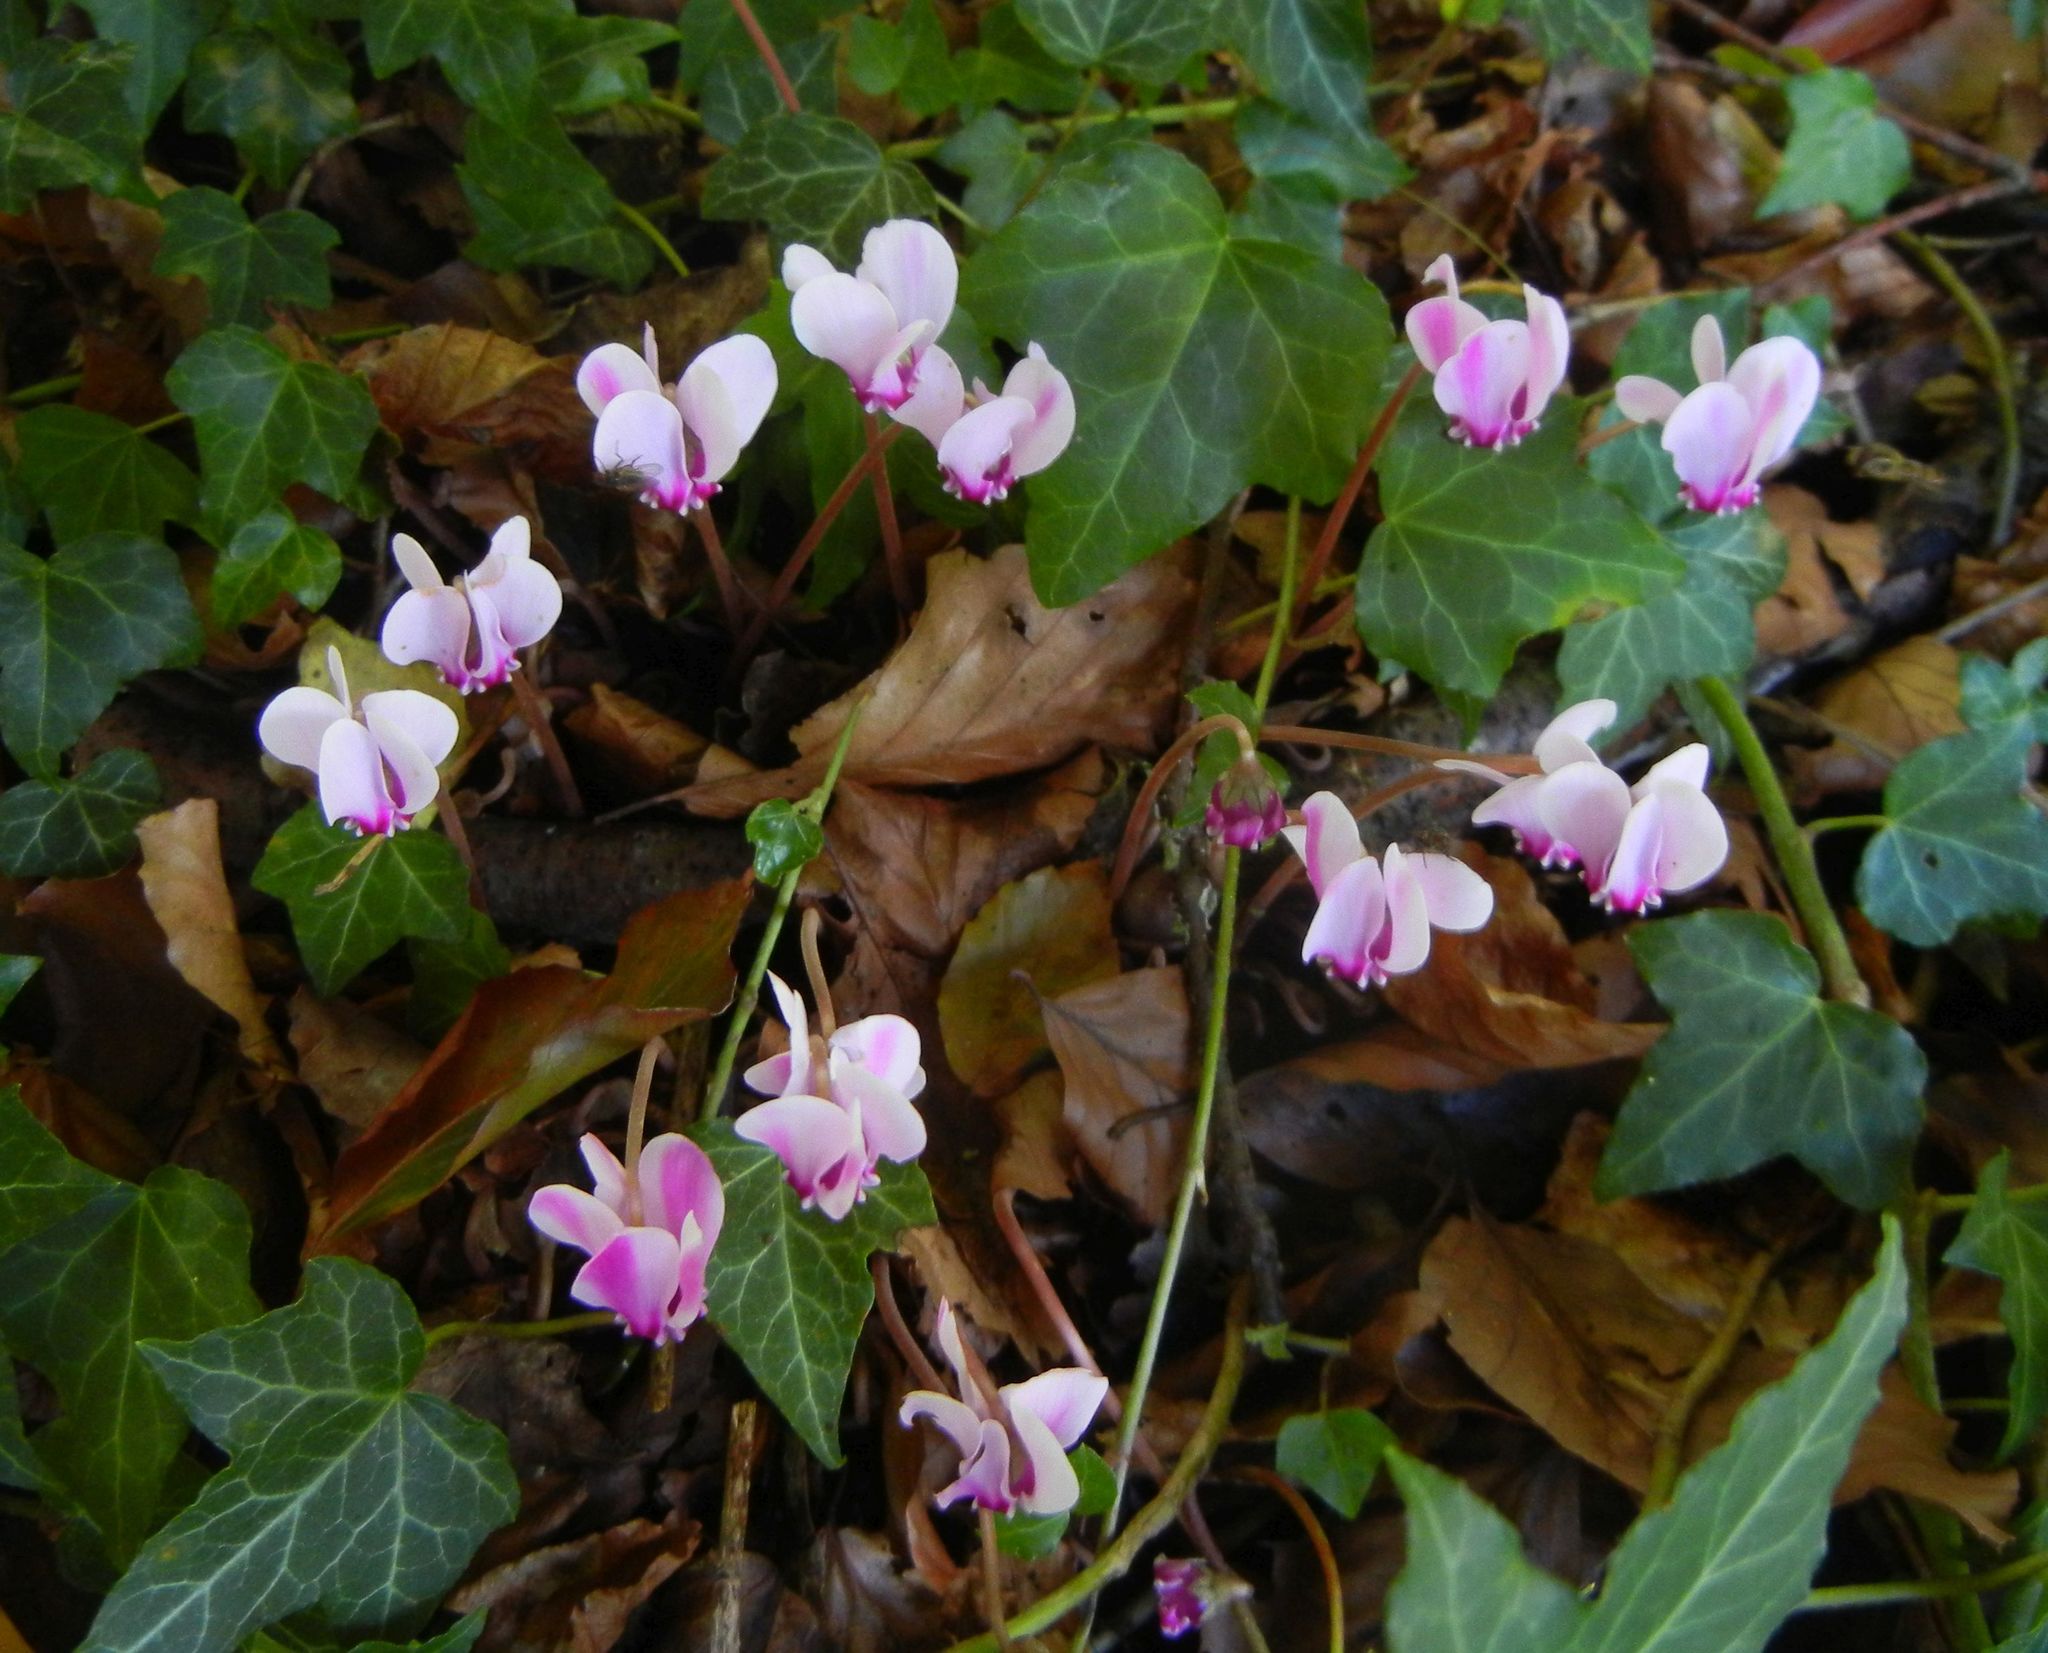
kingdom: Plantae
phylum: Tracheophyta
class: Magnoliopsida
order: Ericales
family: Primulaceae
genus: Cyclamen
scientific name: Cyclamen hederifolium
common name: Sowbread
